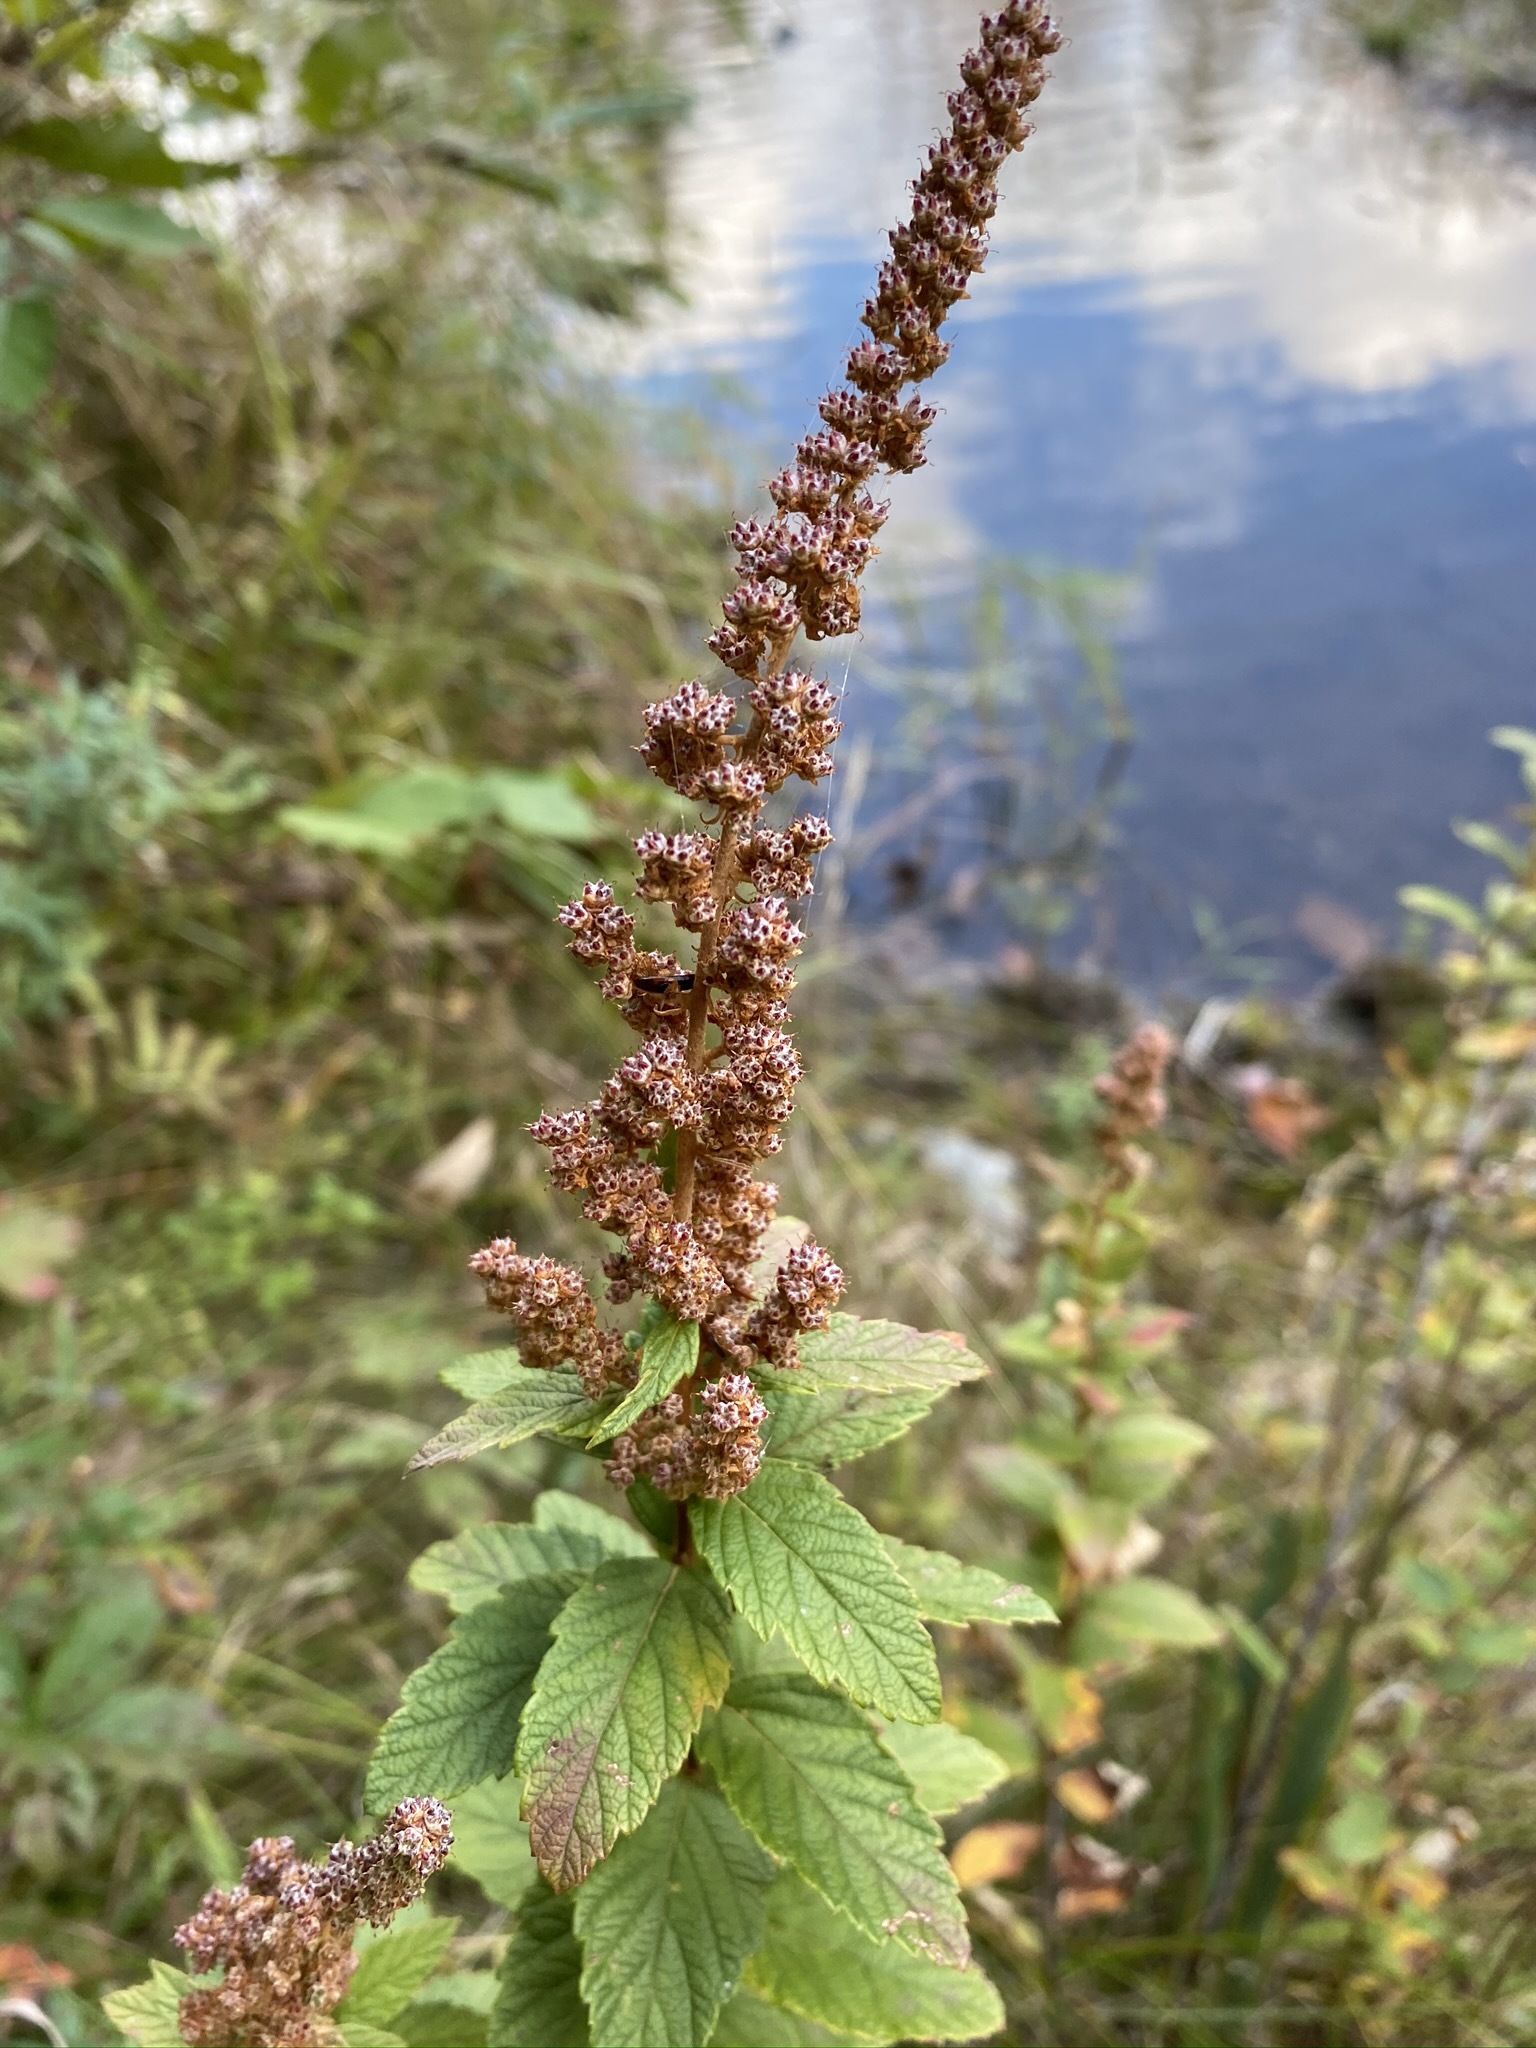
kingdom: Plantae
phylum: Tracheophyta
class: Magnoliopsida
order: Rosales
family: Rosaceae
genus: Spiraea
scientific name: Spiraea tomentosa
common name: Hardhack
